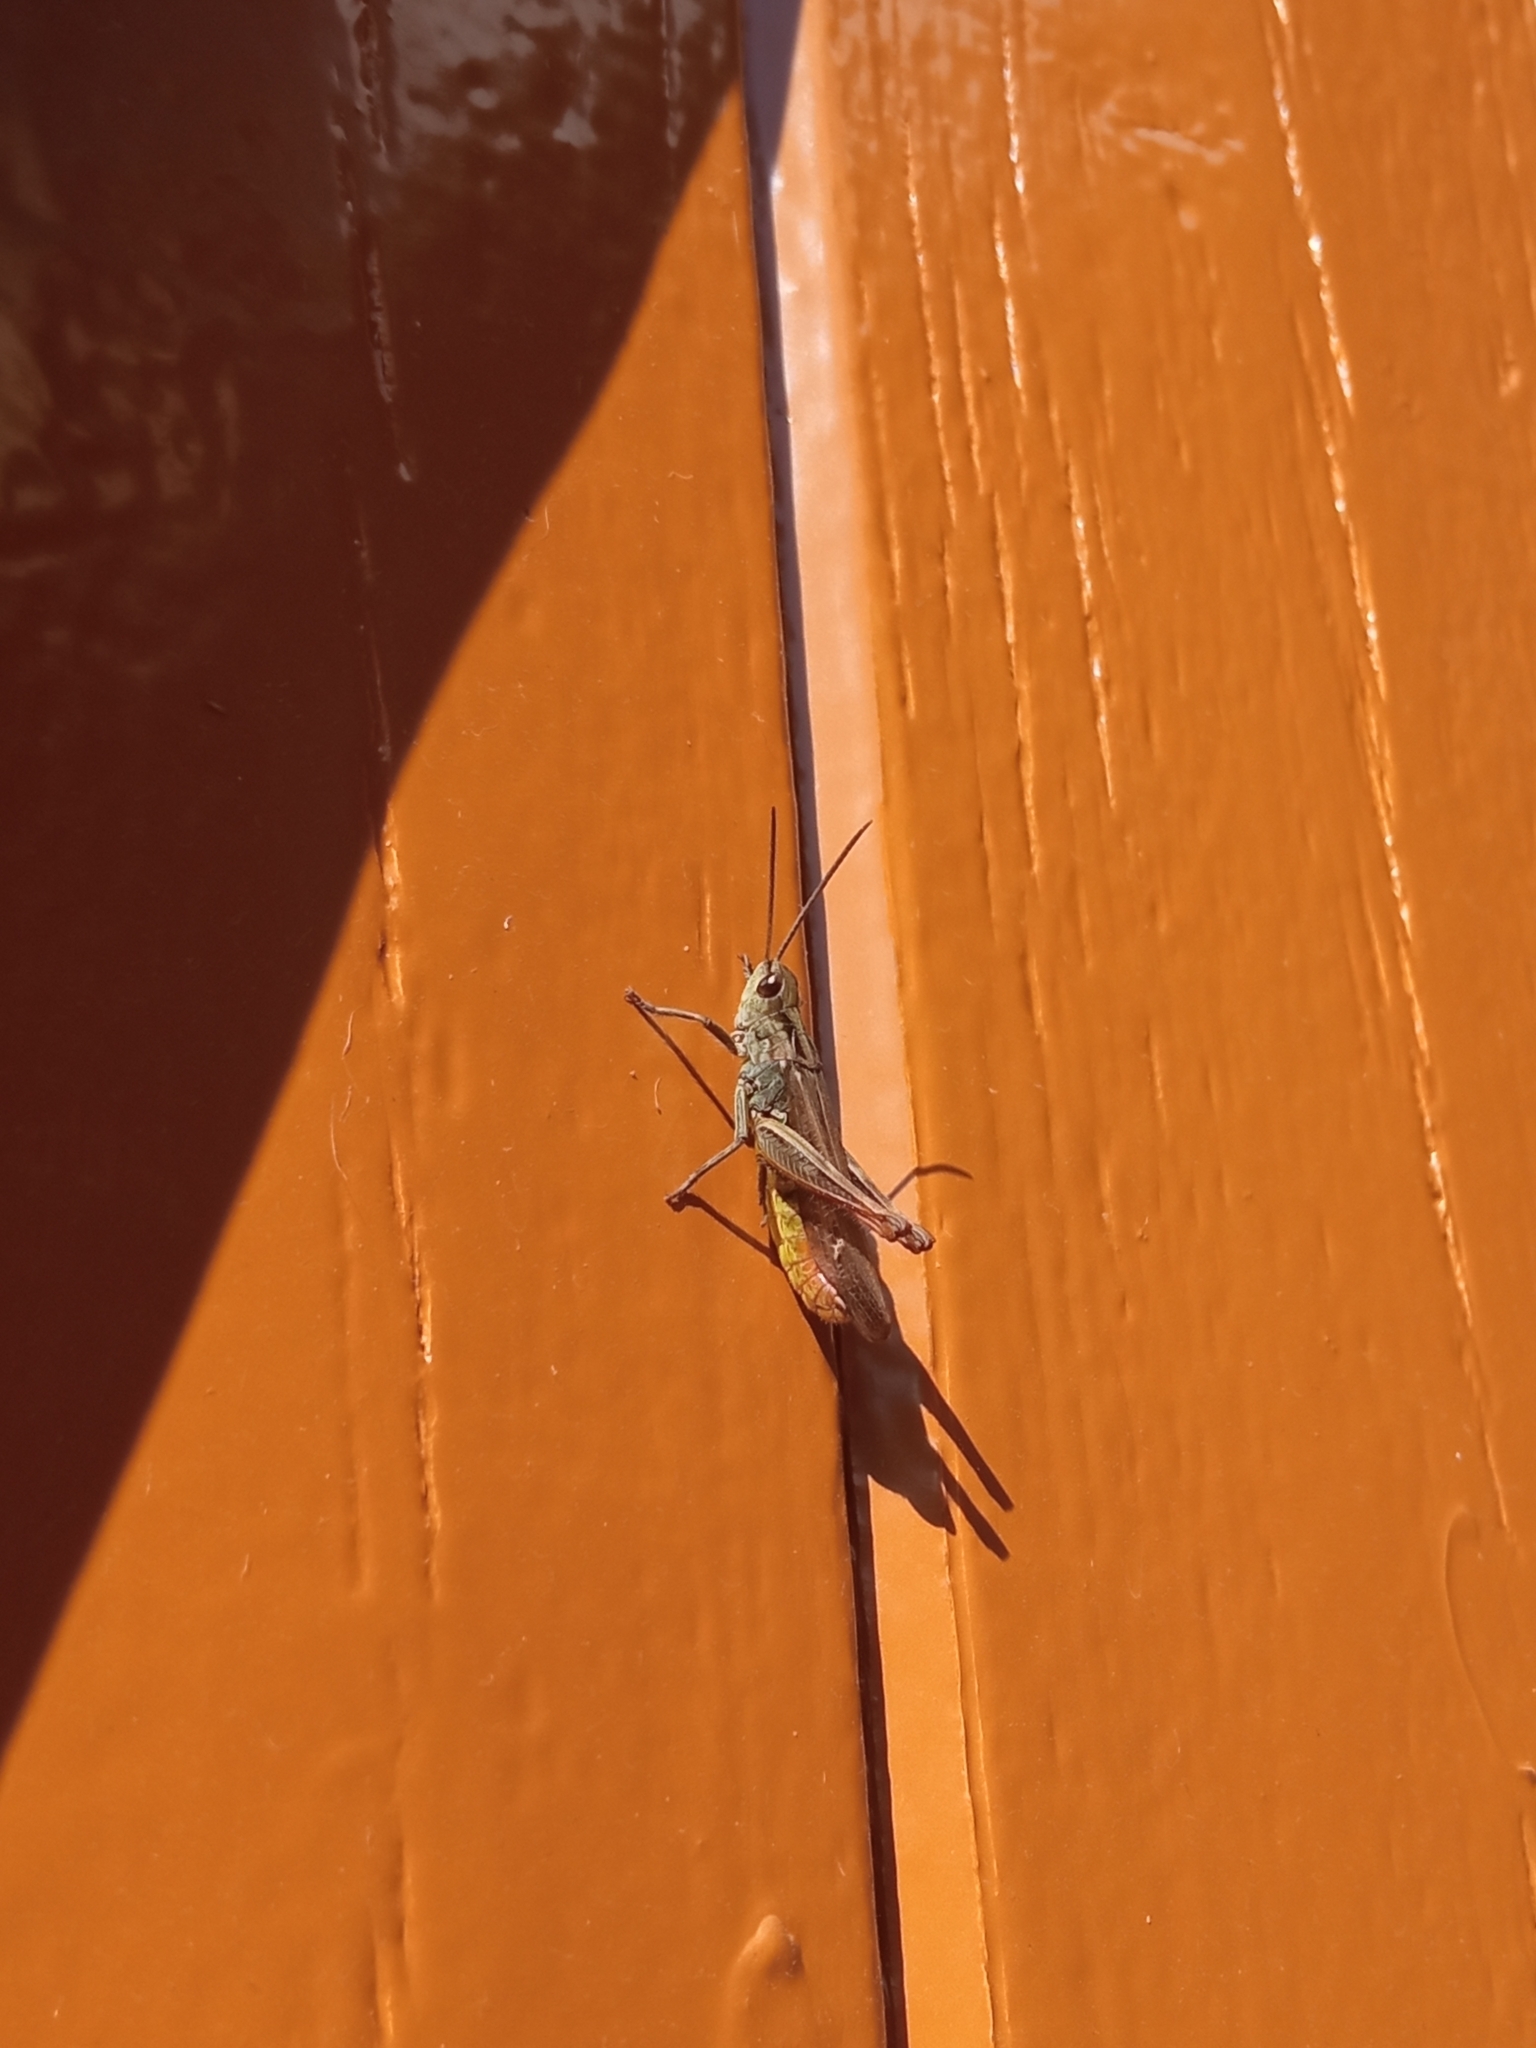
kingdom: Animalia
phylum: Arthropoda
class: Insecta
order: Orthoptera
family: Acrididae
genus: Chorthippus
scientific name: Chorthippus biguttulus
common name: Bow-winged grasshopper
